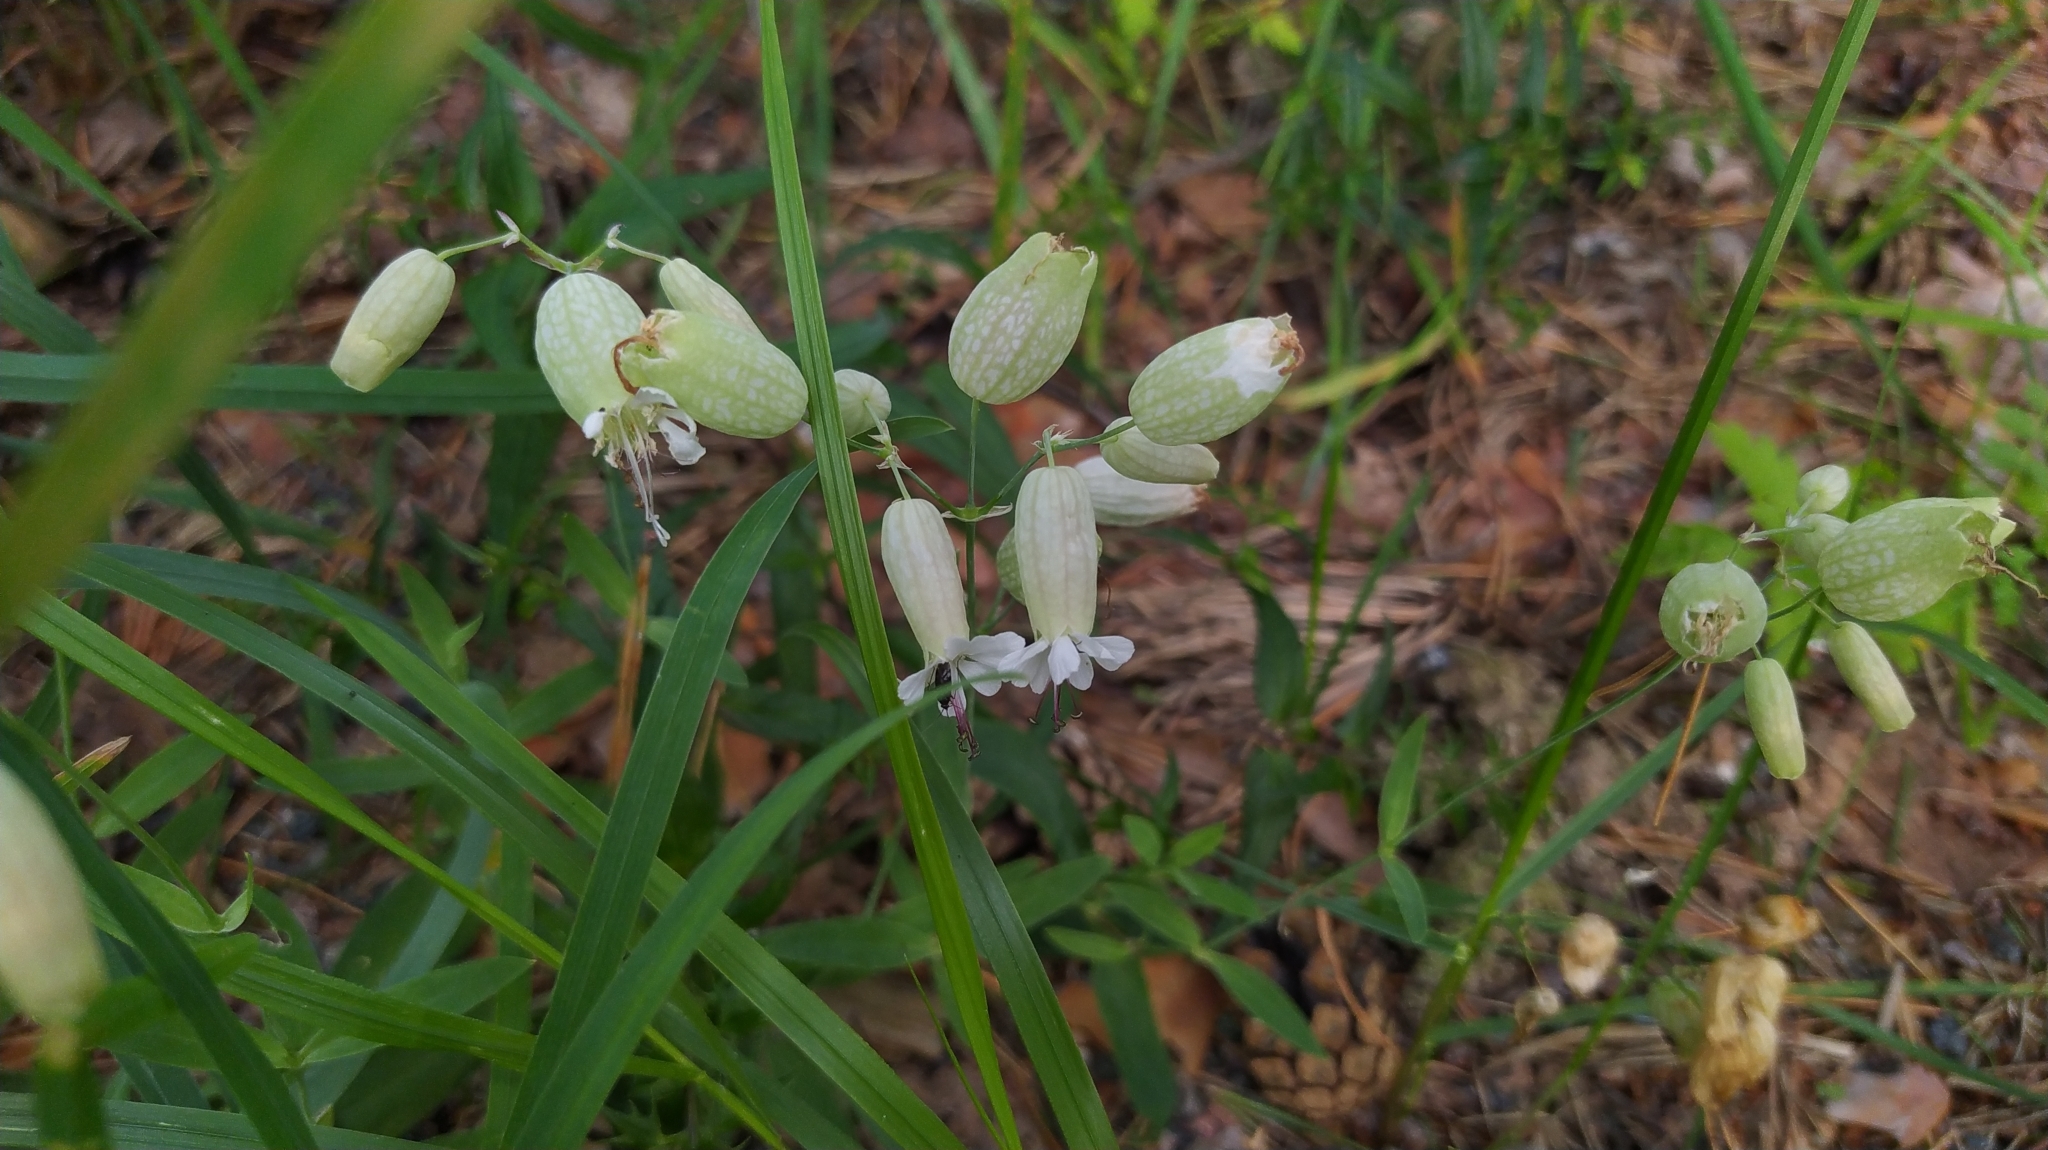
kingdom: Plantae
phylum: Tracheophyta
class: Magnoliopsida
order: Caryophyllales
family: Caryophyllaceae
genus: Silene
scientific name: Silene vulgaris
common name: Bladder campion
